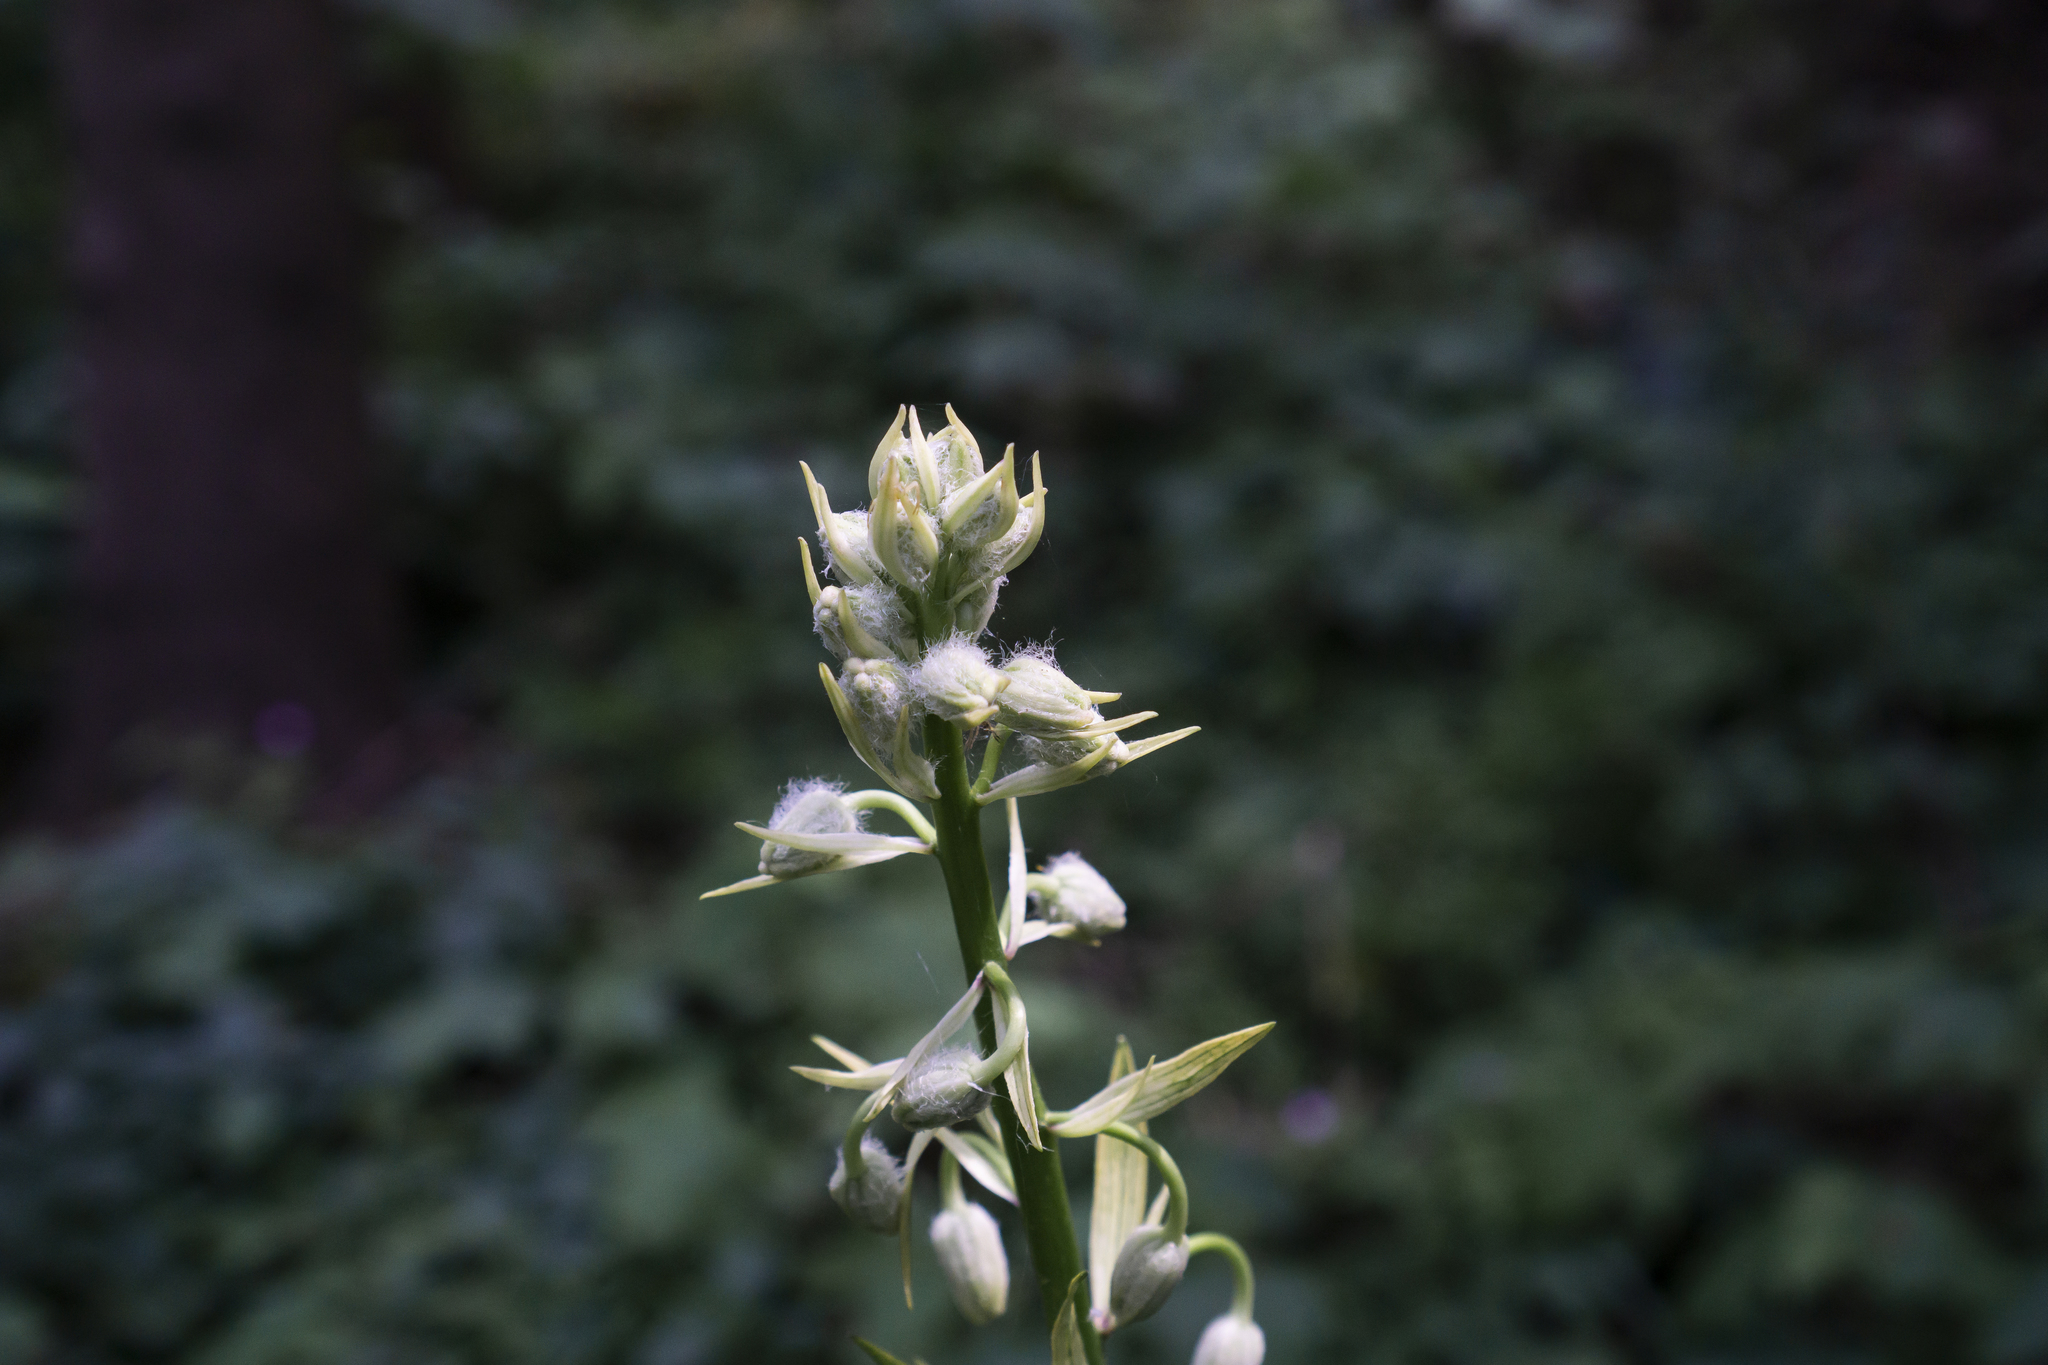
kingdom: Plantae
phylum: Tracheophyta
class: Liliopsida
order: Liliales
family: Liliaceae
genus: Lilium
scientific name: Lilium martagon
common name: Martagon lily
